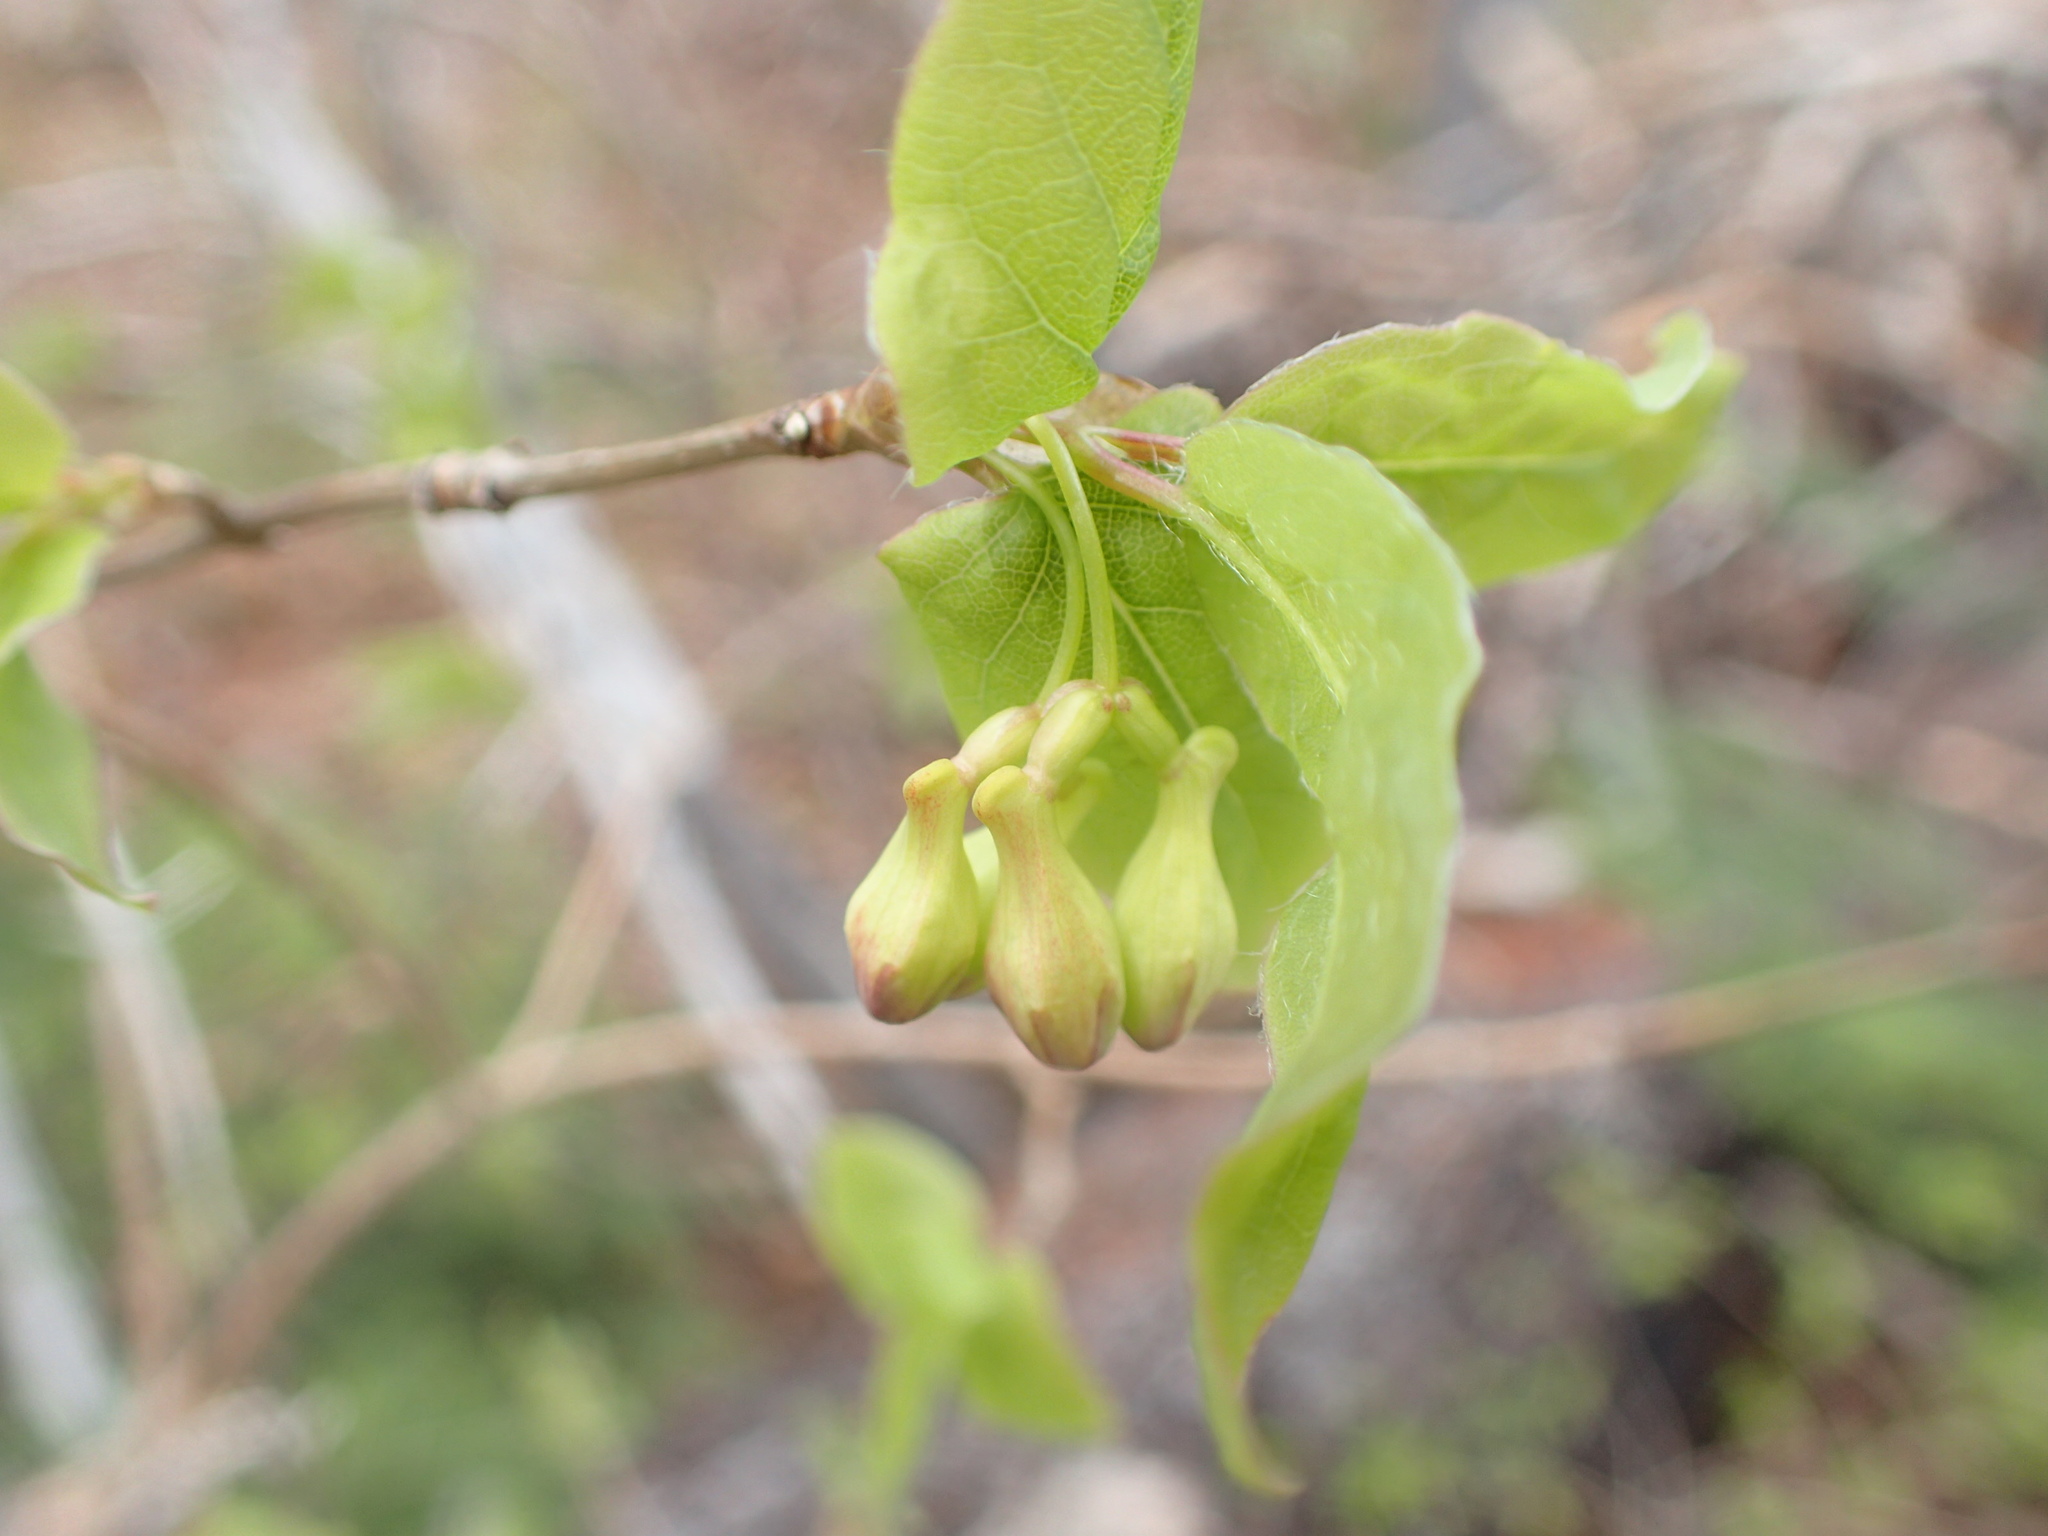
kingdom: Plantae
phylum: Tracheophyta
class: Magnoliopsida
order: Dipsacales
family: Caprifoliaceae
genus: Lonicera
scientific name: Lonicera canadensis
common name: American fly-honeysuckle
